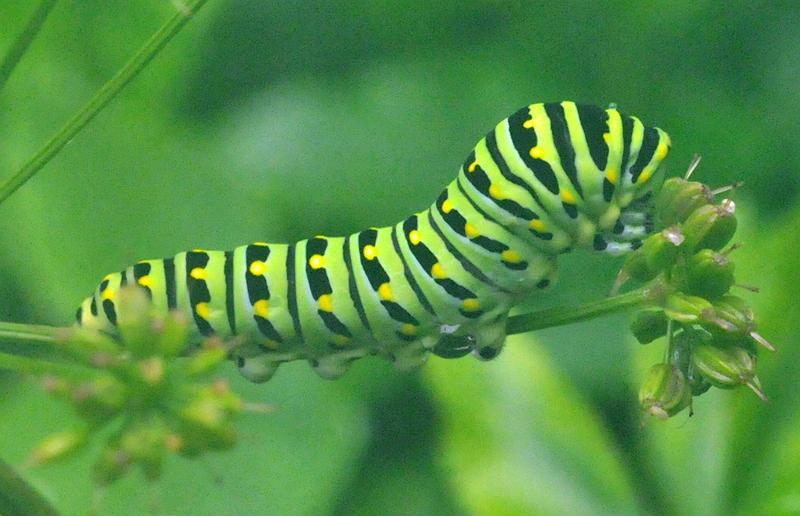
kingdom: Animalia
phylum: Arthropoda
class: Insecta
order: Lepidoptera
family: Papilionidae
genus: Papilio
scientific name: Papilio polyxenes
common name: Black swallowtail
